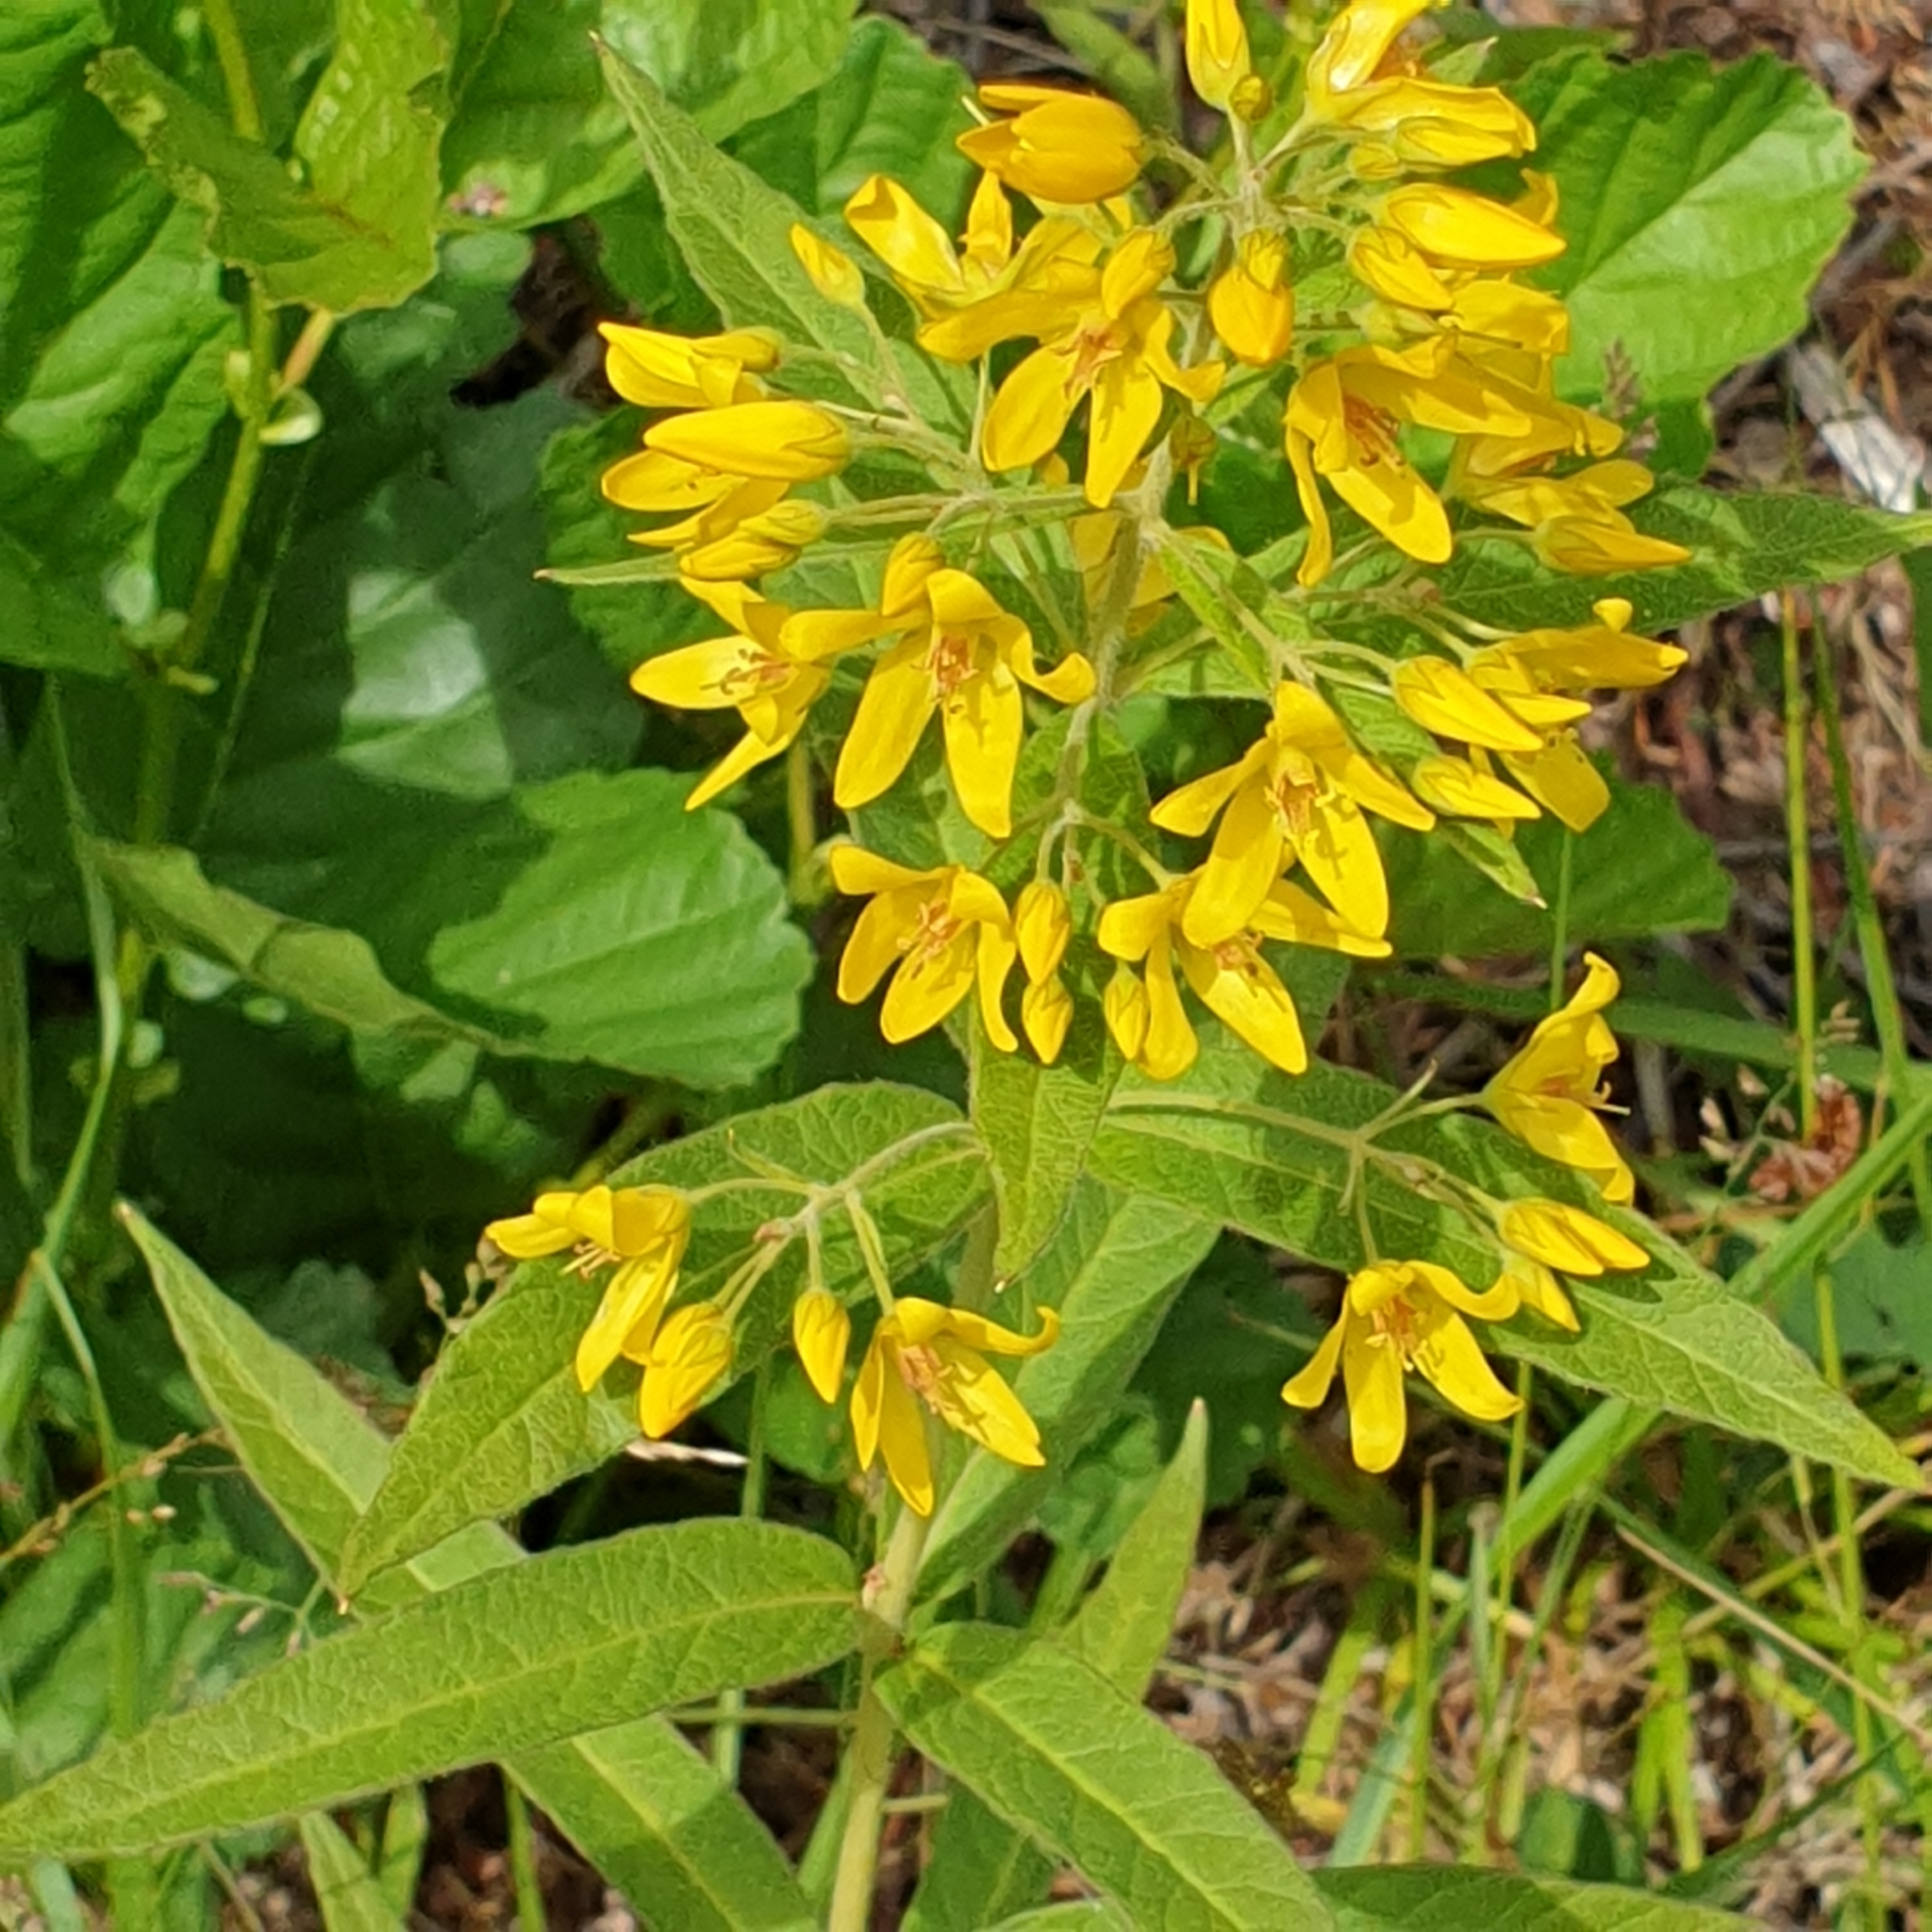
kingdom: Plantae
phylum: Tracheophyta
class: Magnoliopsida
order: Ericales
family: Primulaceae
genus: Lysimachia
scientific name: Lysimachia vulgaris
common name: Yellow loosestrife
